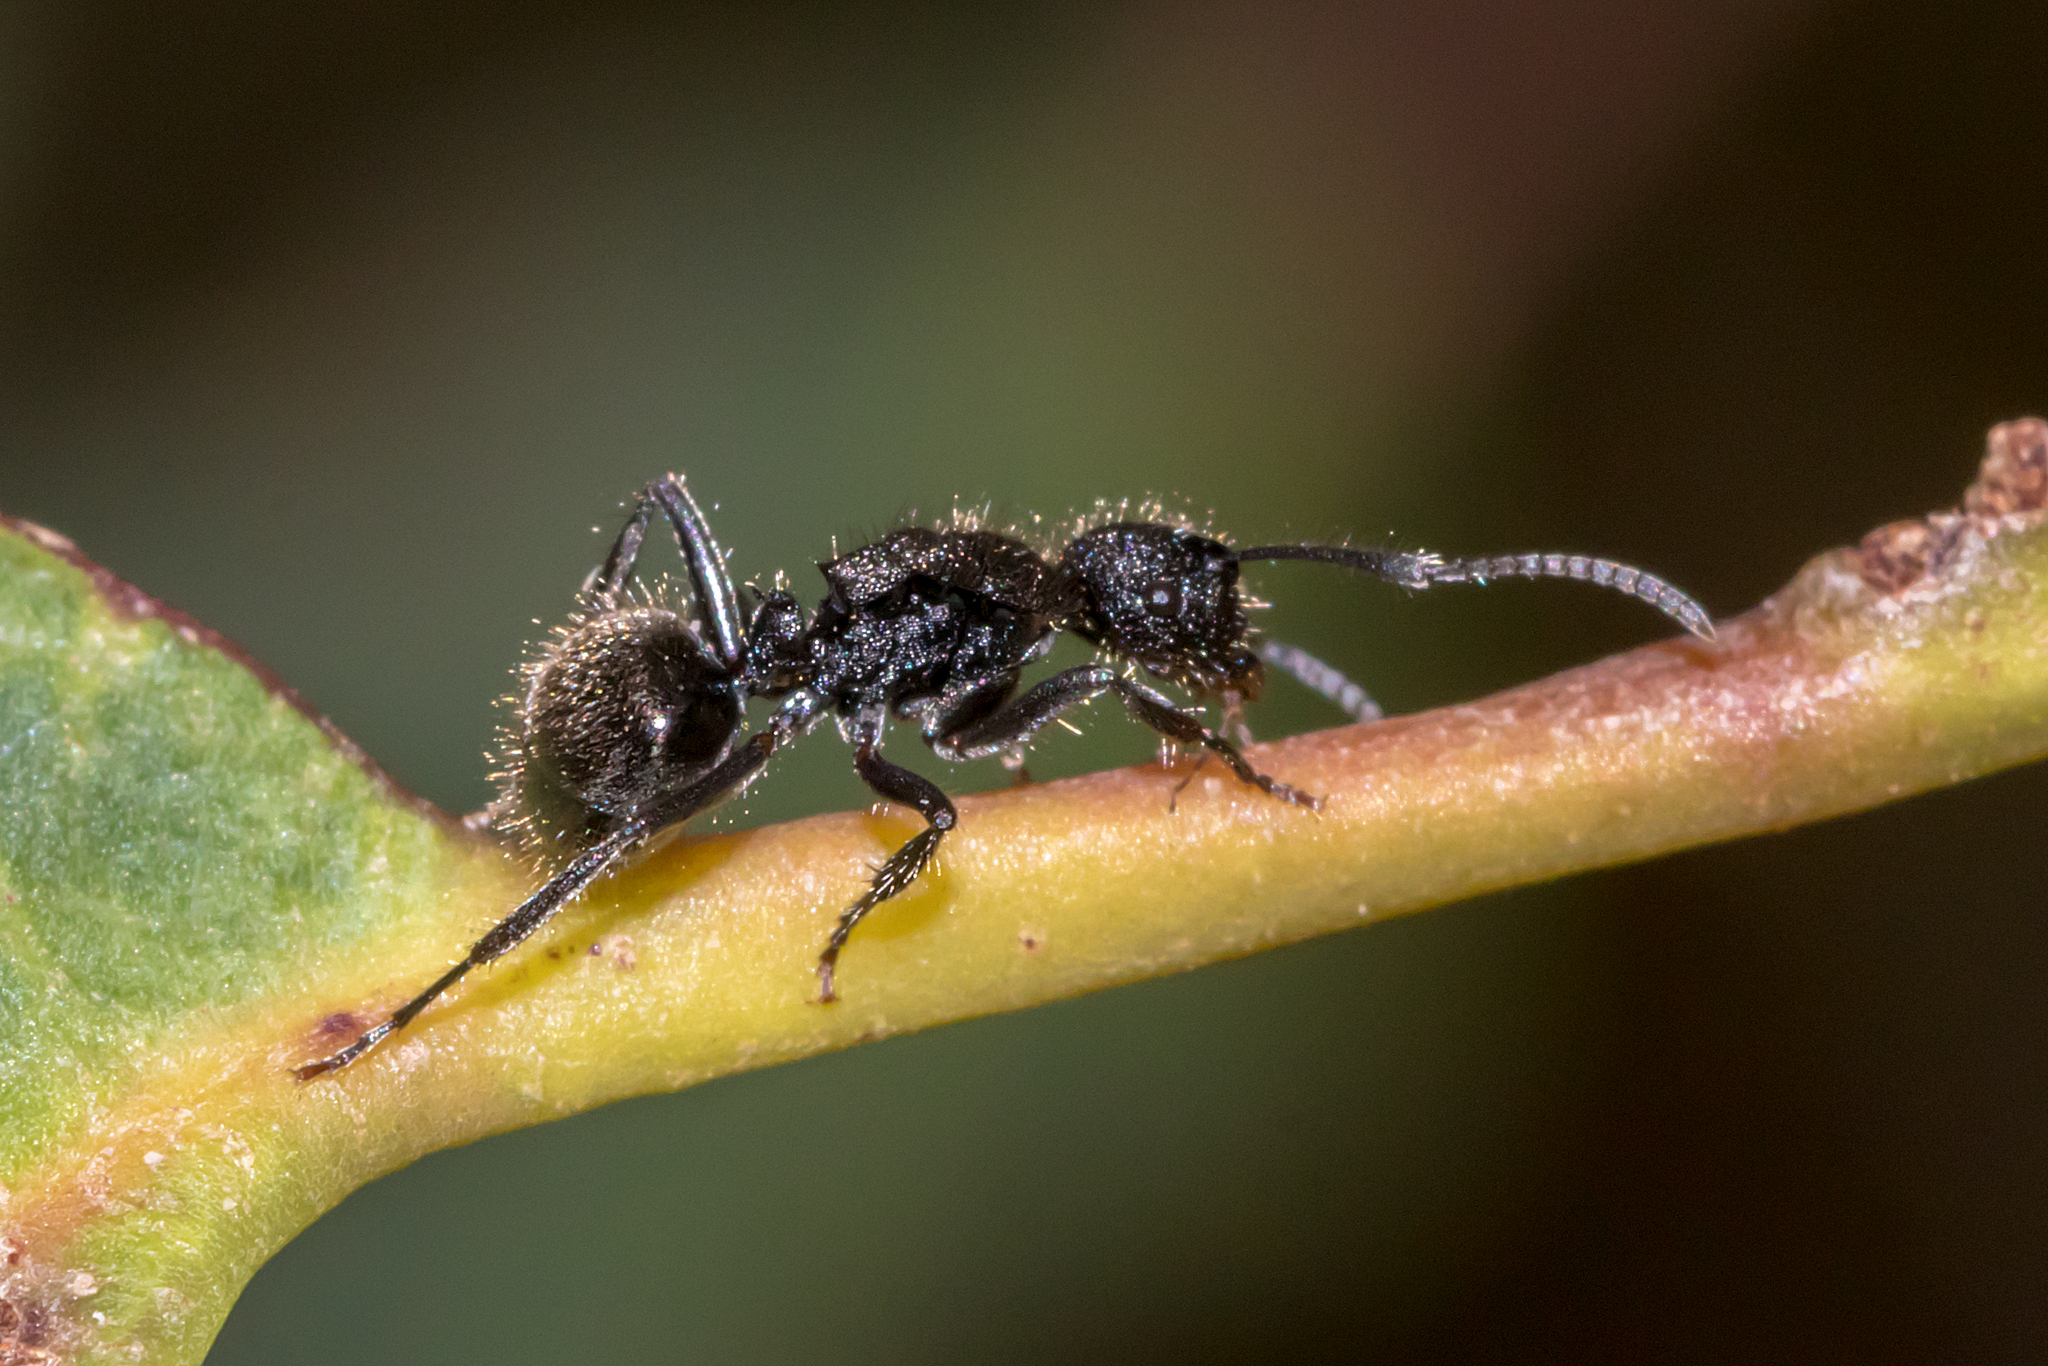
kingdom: Animalia
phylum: Arthropoda
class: Insecta
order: Hymenoptera
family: Formicidae
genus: Polyrhachis
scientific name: Polyrhachis hirsuta
